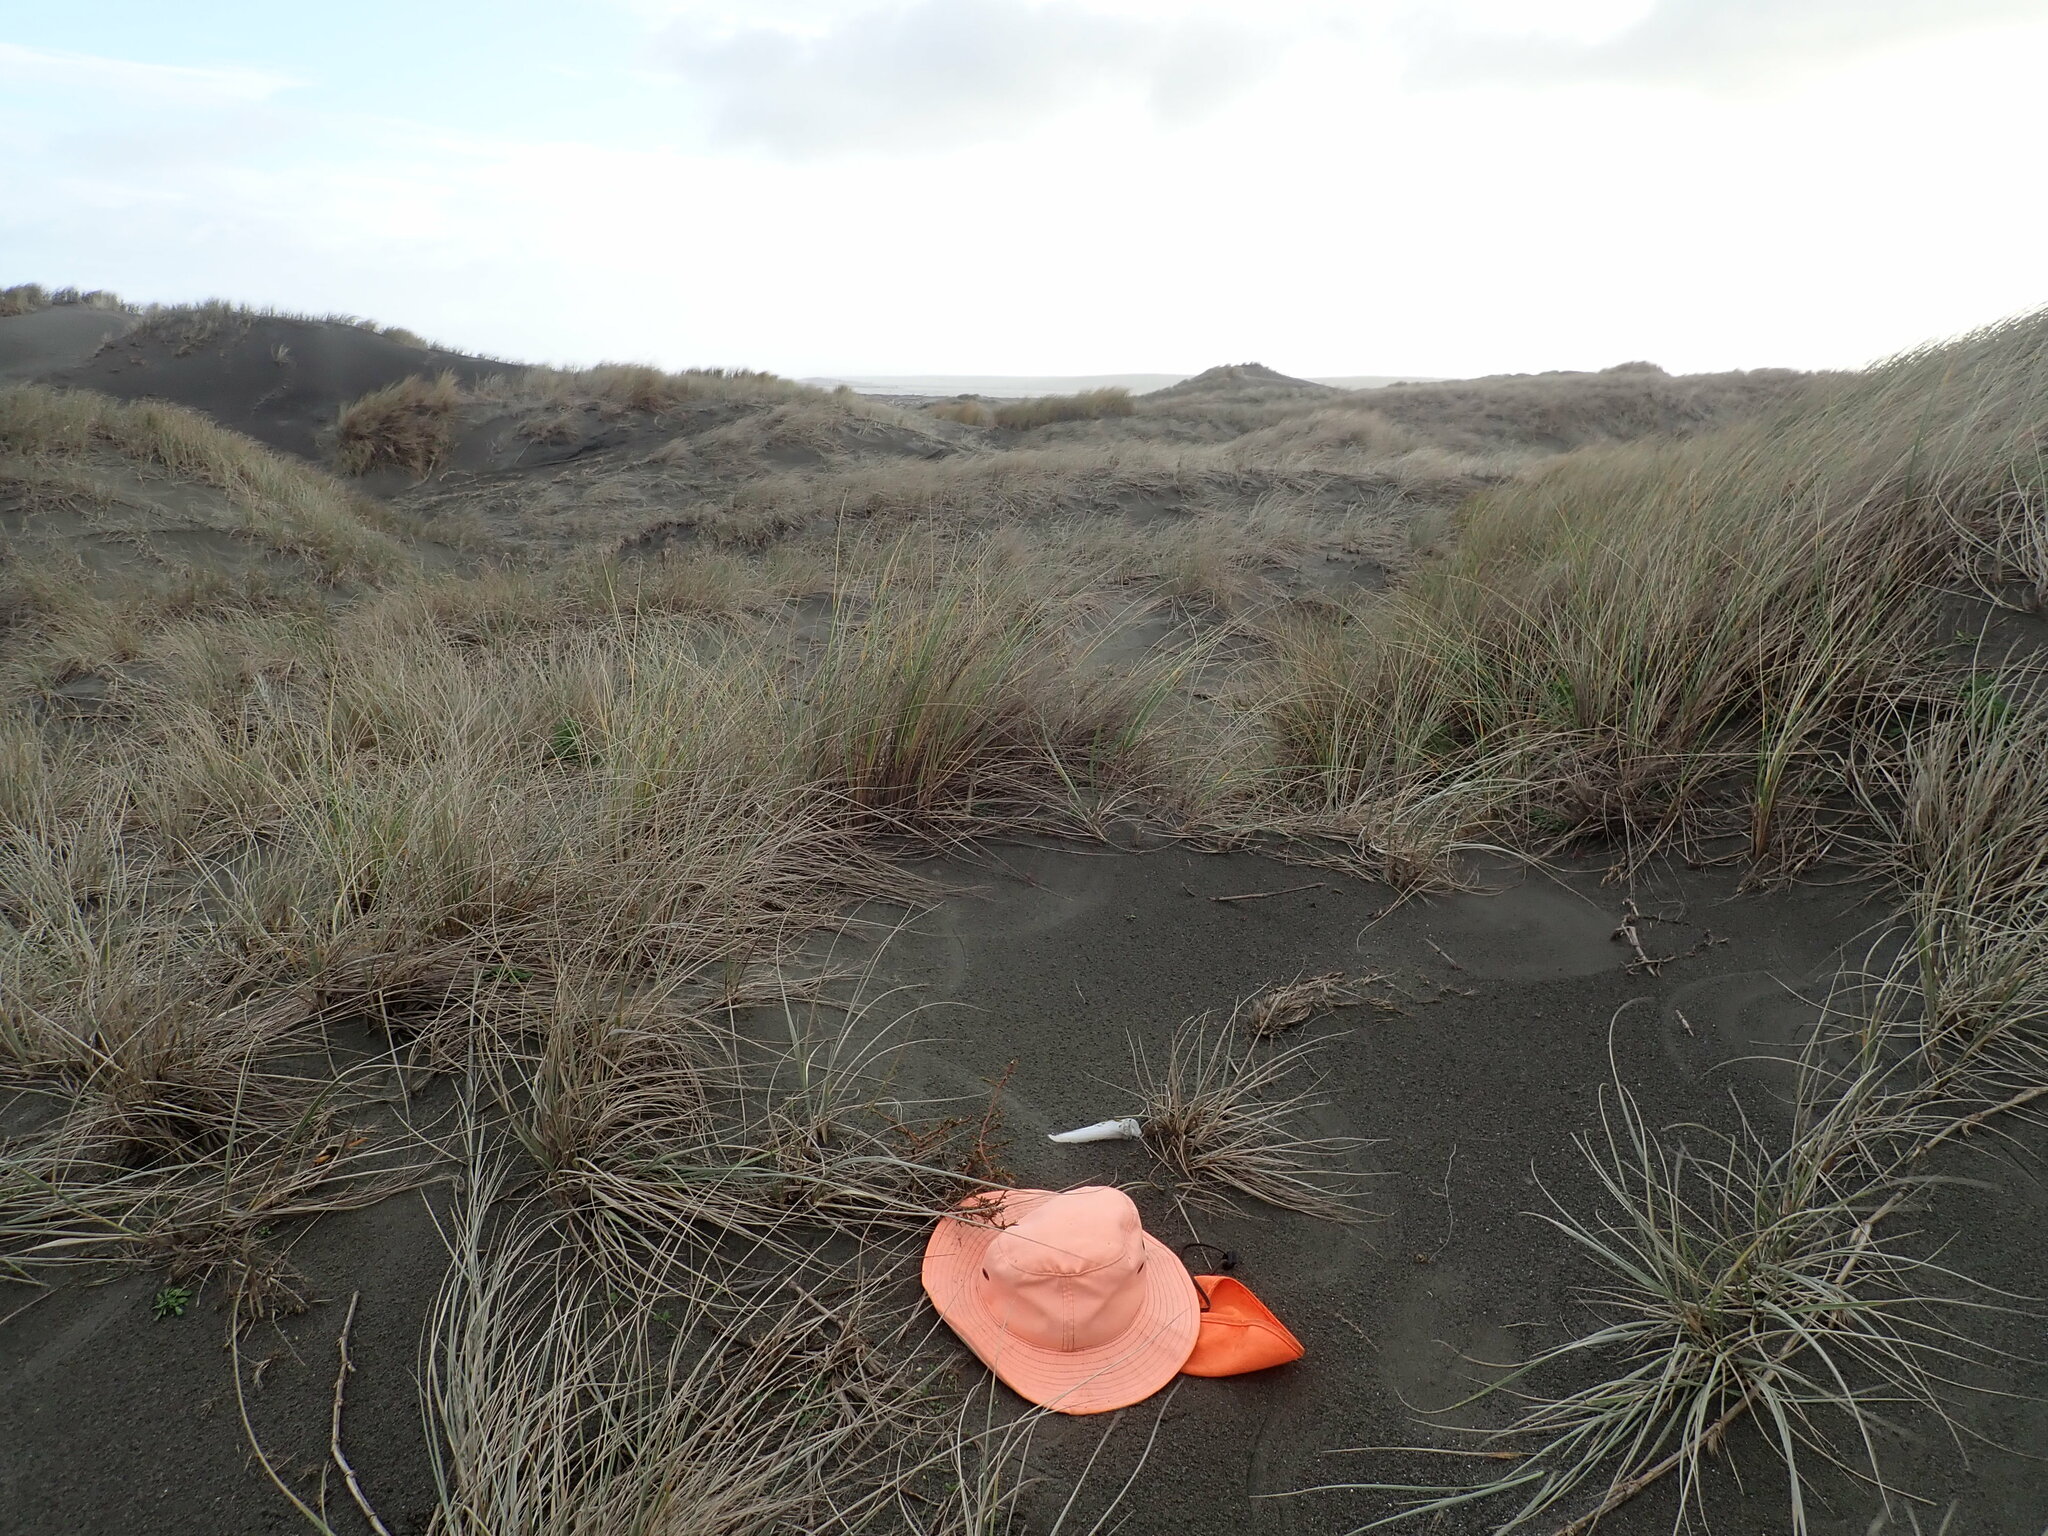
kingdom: Plantae
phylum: Tracheophyta
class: Magnoliopsida
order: Gentianales
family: Rubiaceae
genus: Coprosma
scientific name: Coprosma acerosa
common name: Sand coprosma
